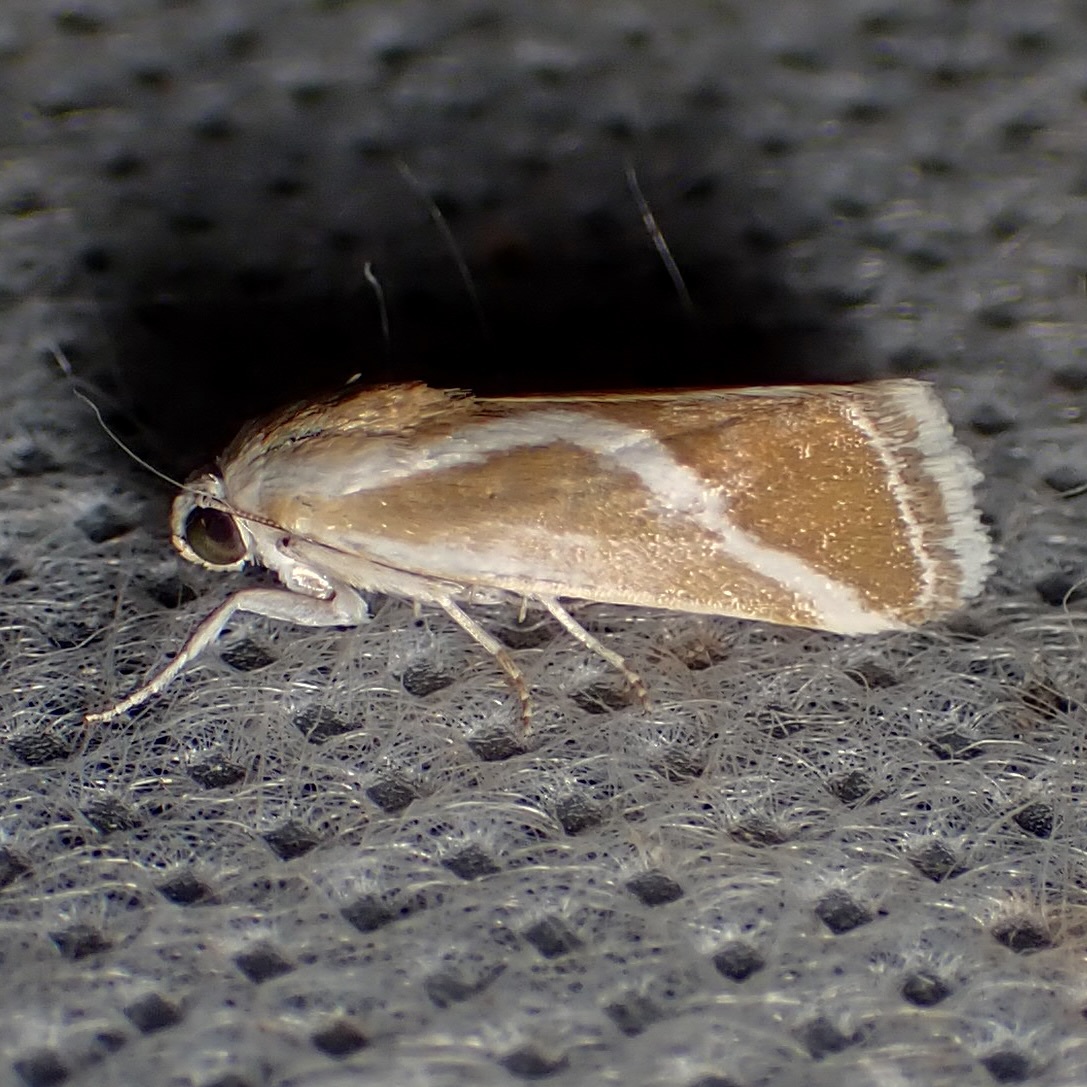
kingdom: Animalia
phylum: Arthropoda
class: Insecta
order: Lepidoptera
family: Noctuidae
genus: Acontia
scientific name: Acontia alata
